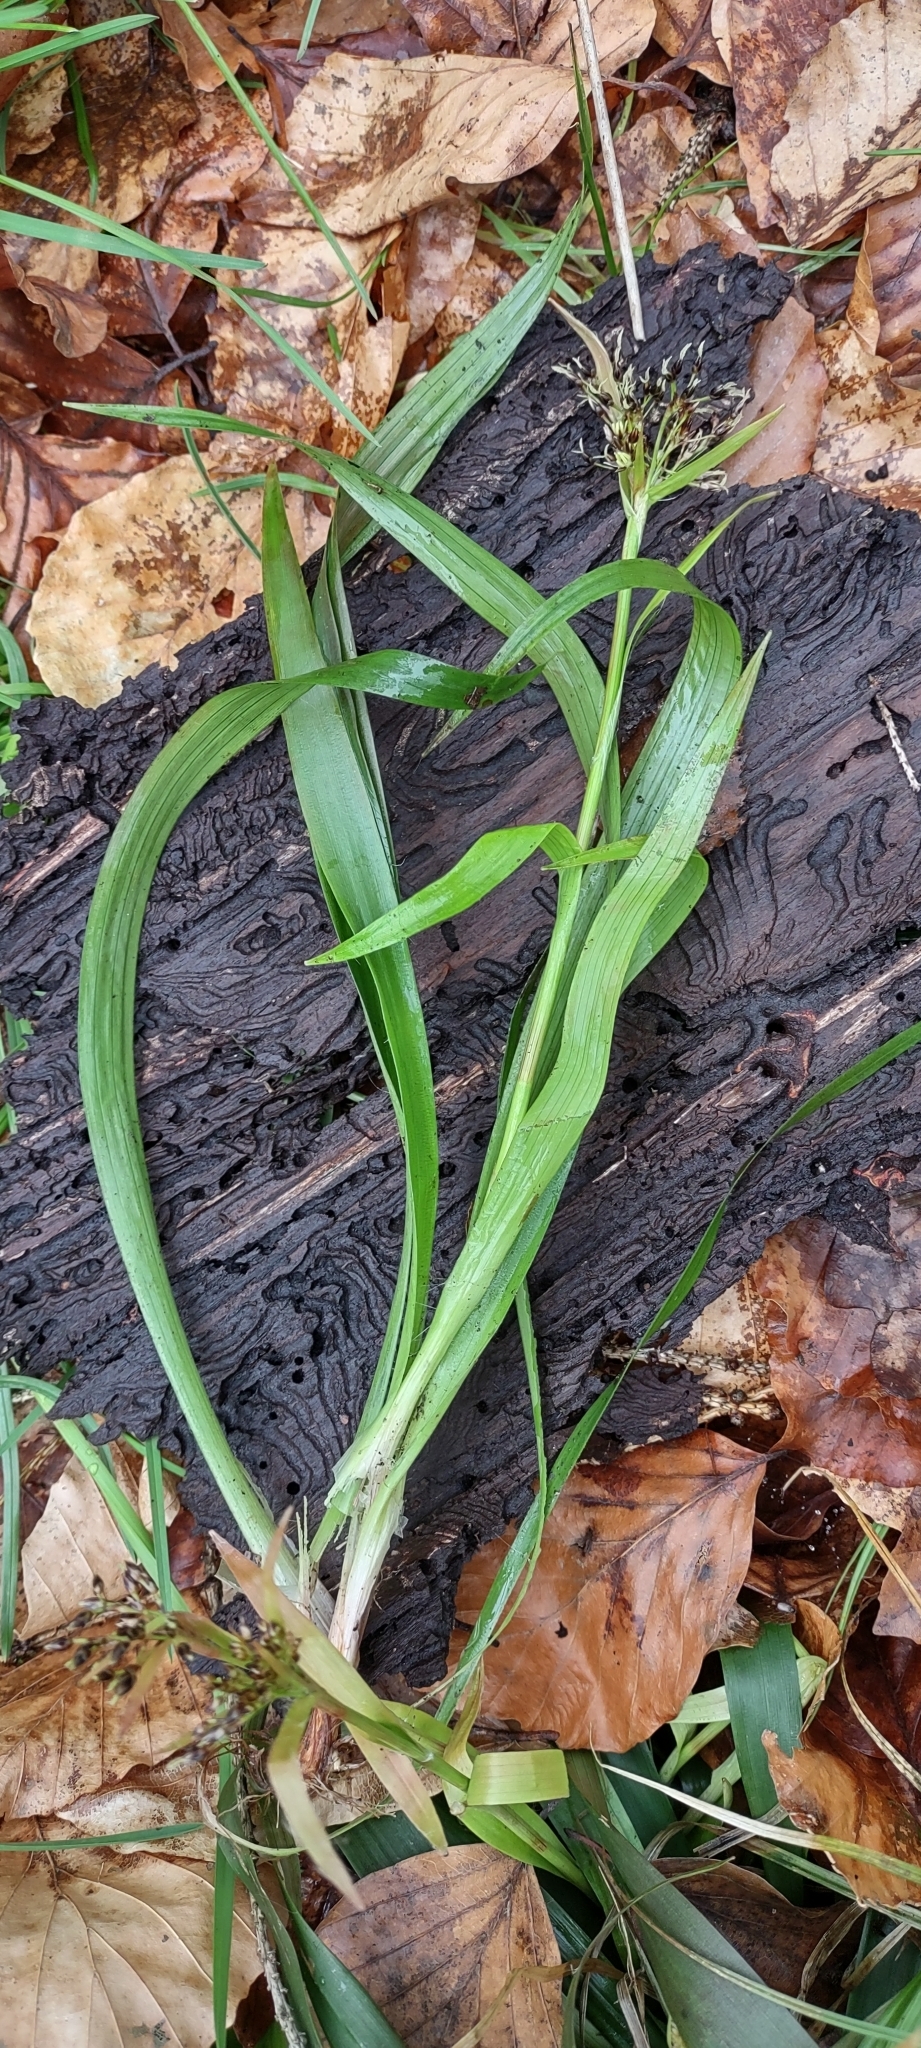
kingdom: Plantae
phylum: Tracheophyta
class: Liliopsida
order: Poales
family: Juncaceae
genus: Luzula
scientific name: Luzula pilosa
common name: Hairy wood-rush
